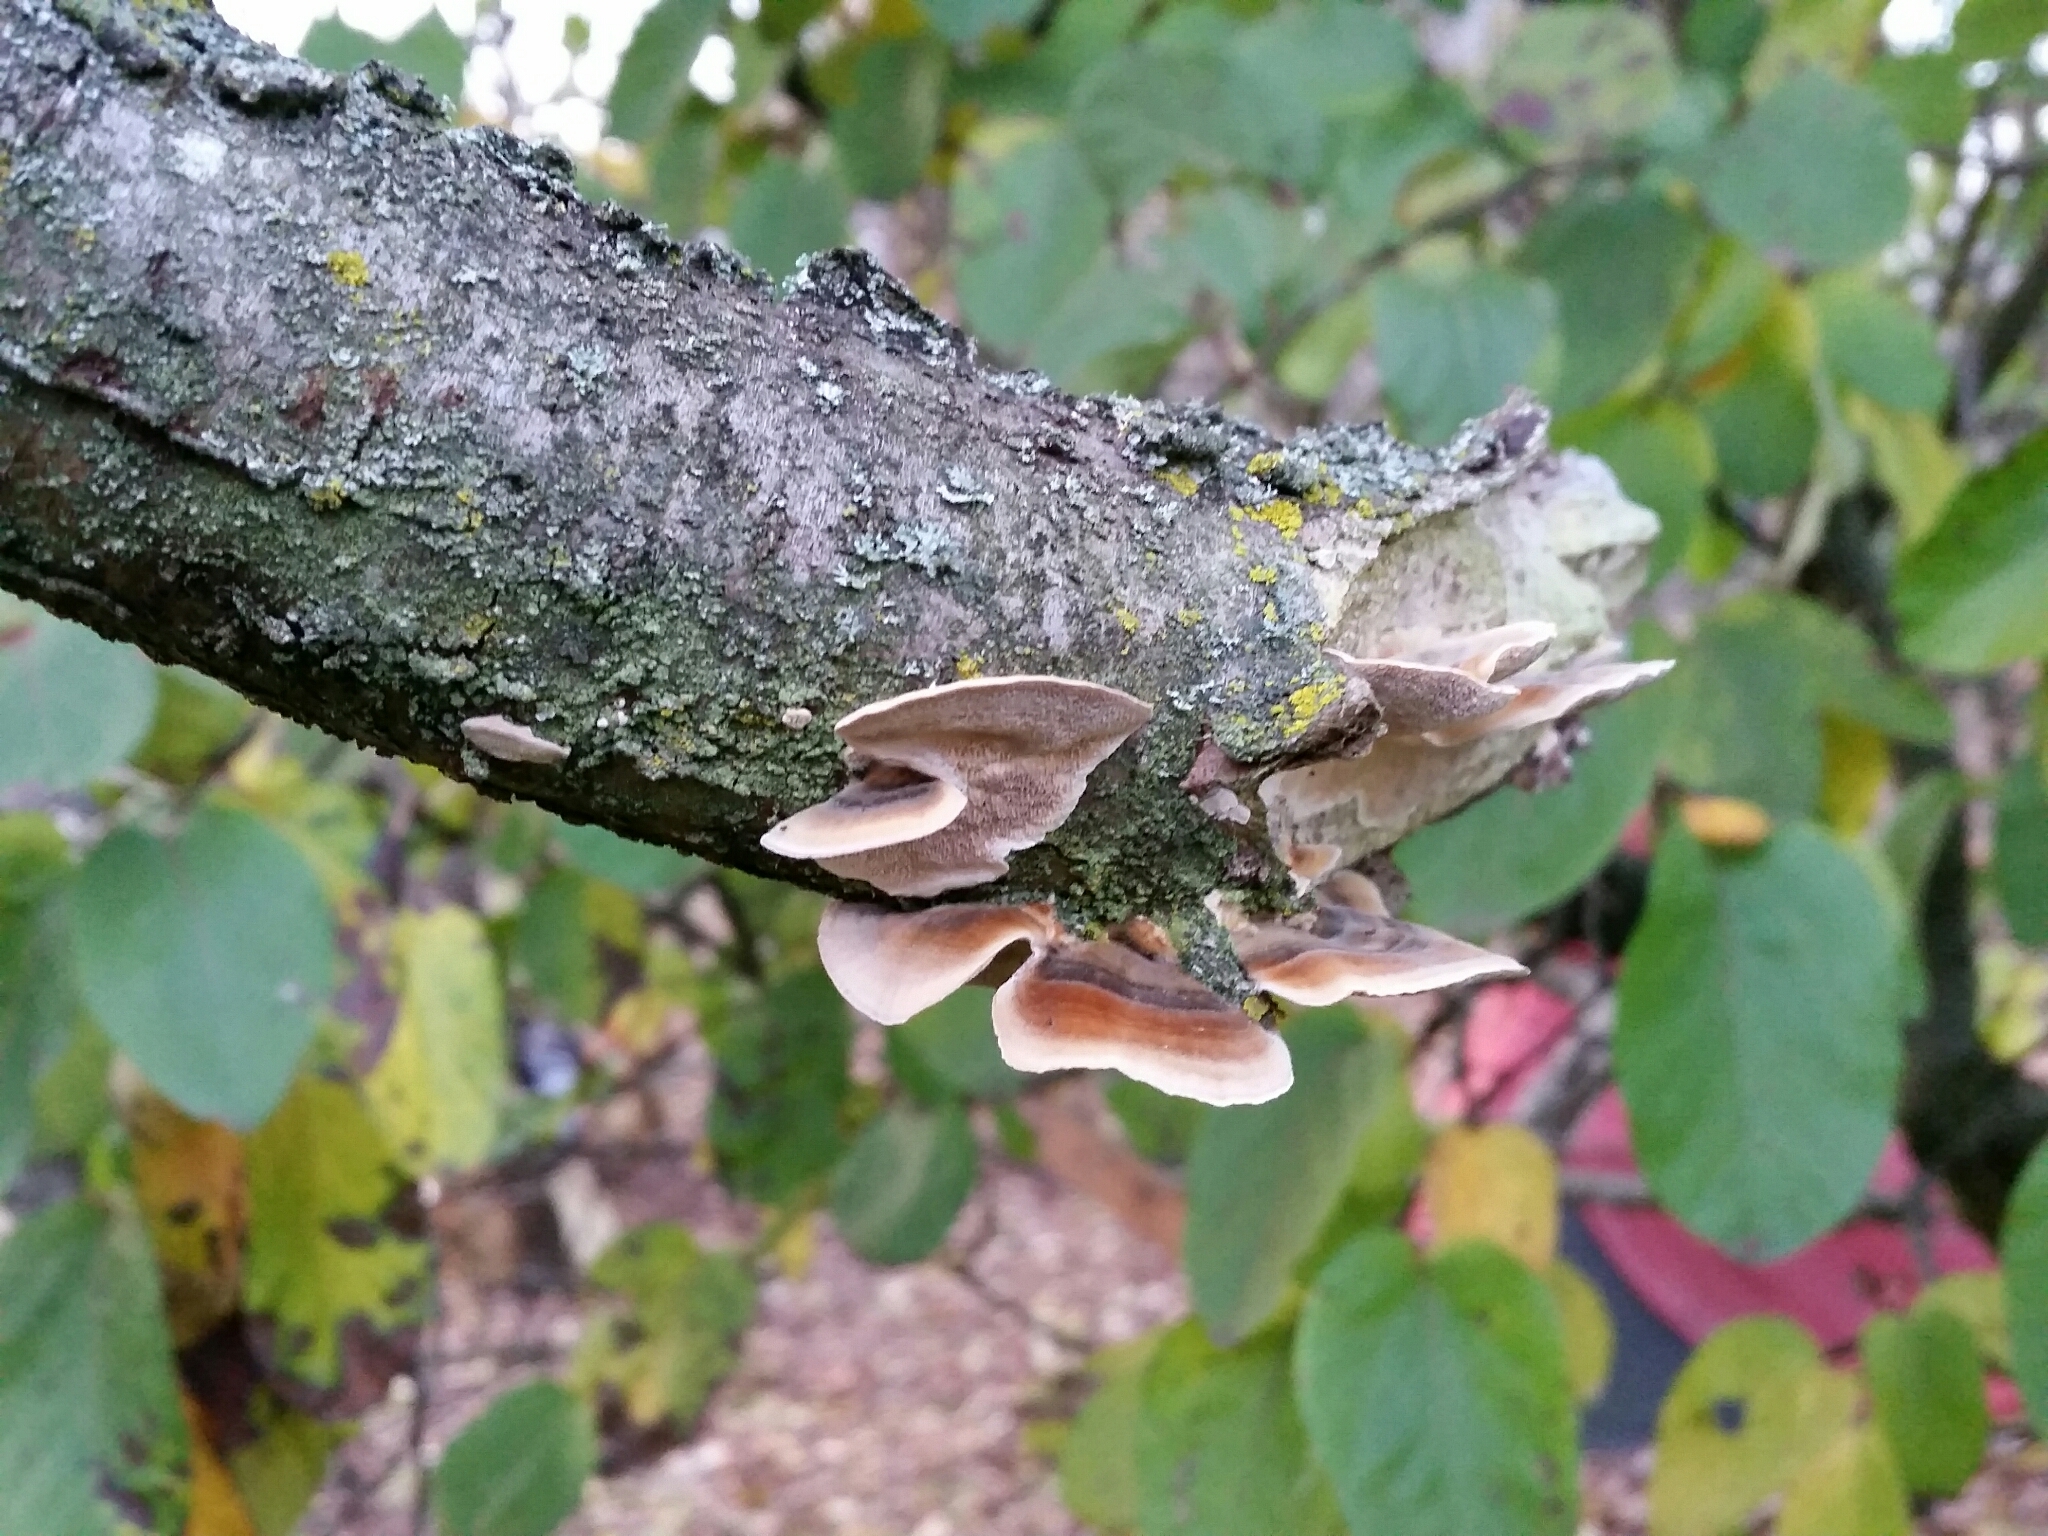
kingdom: Fungi
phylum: Basidiomycota
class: Agaricomycetes
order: Polyporales
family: Polyporaceae
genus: Trametes
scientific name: Trametes versicolor
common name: Turkeytail
